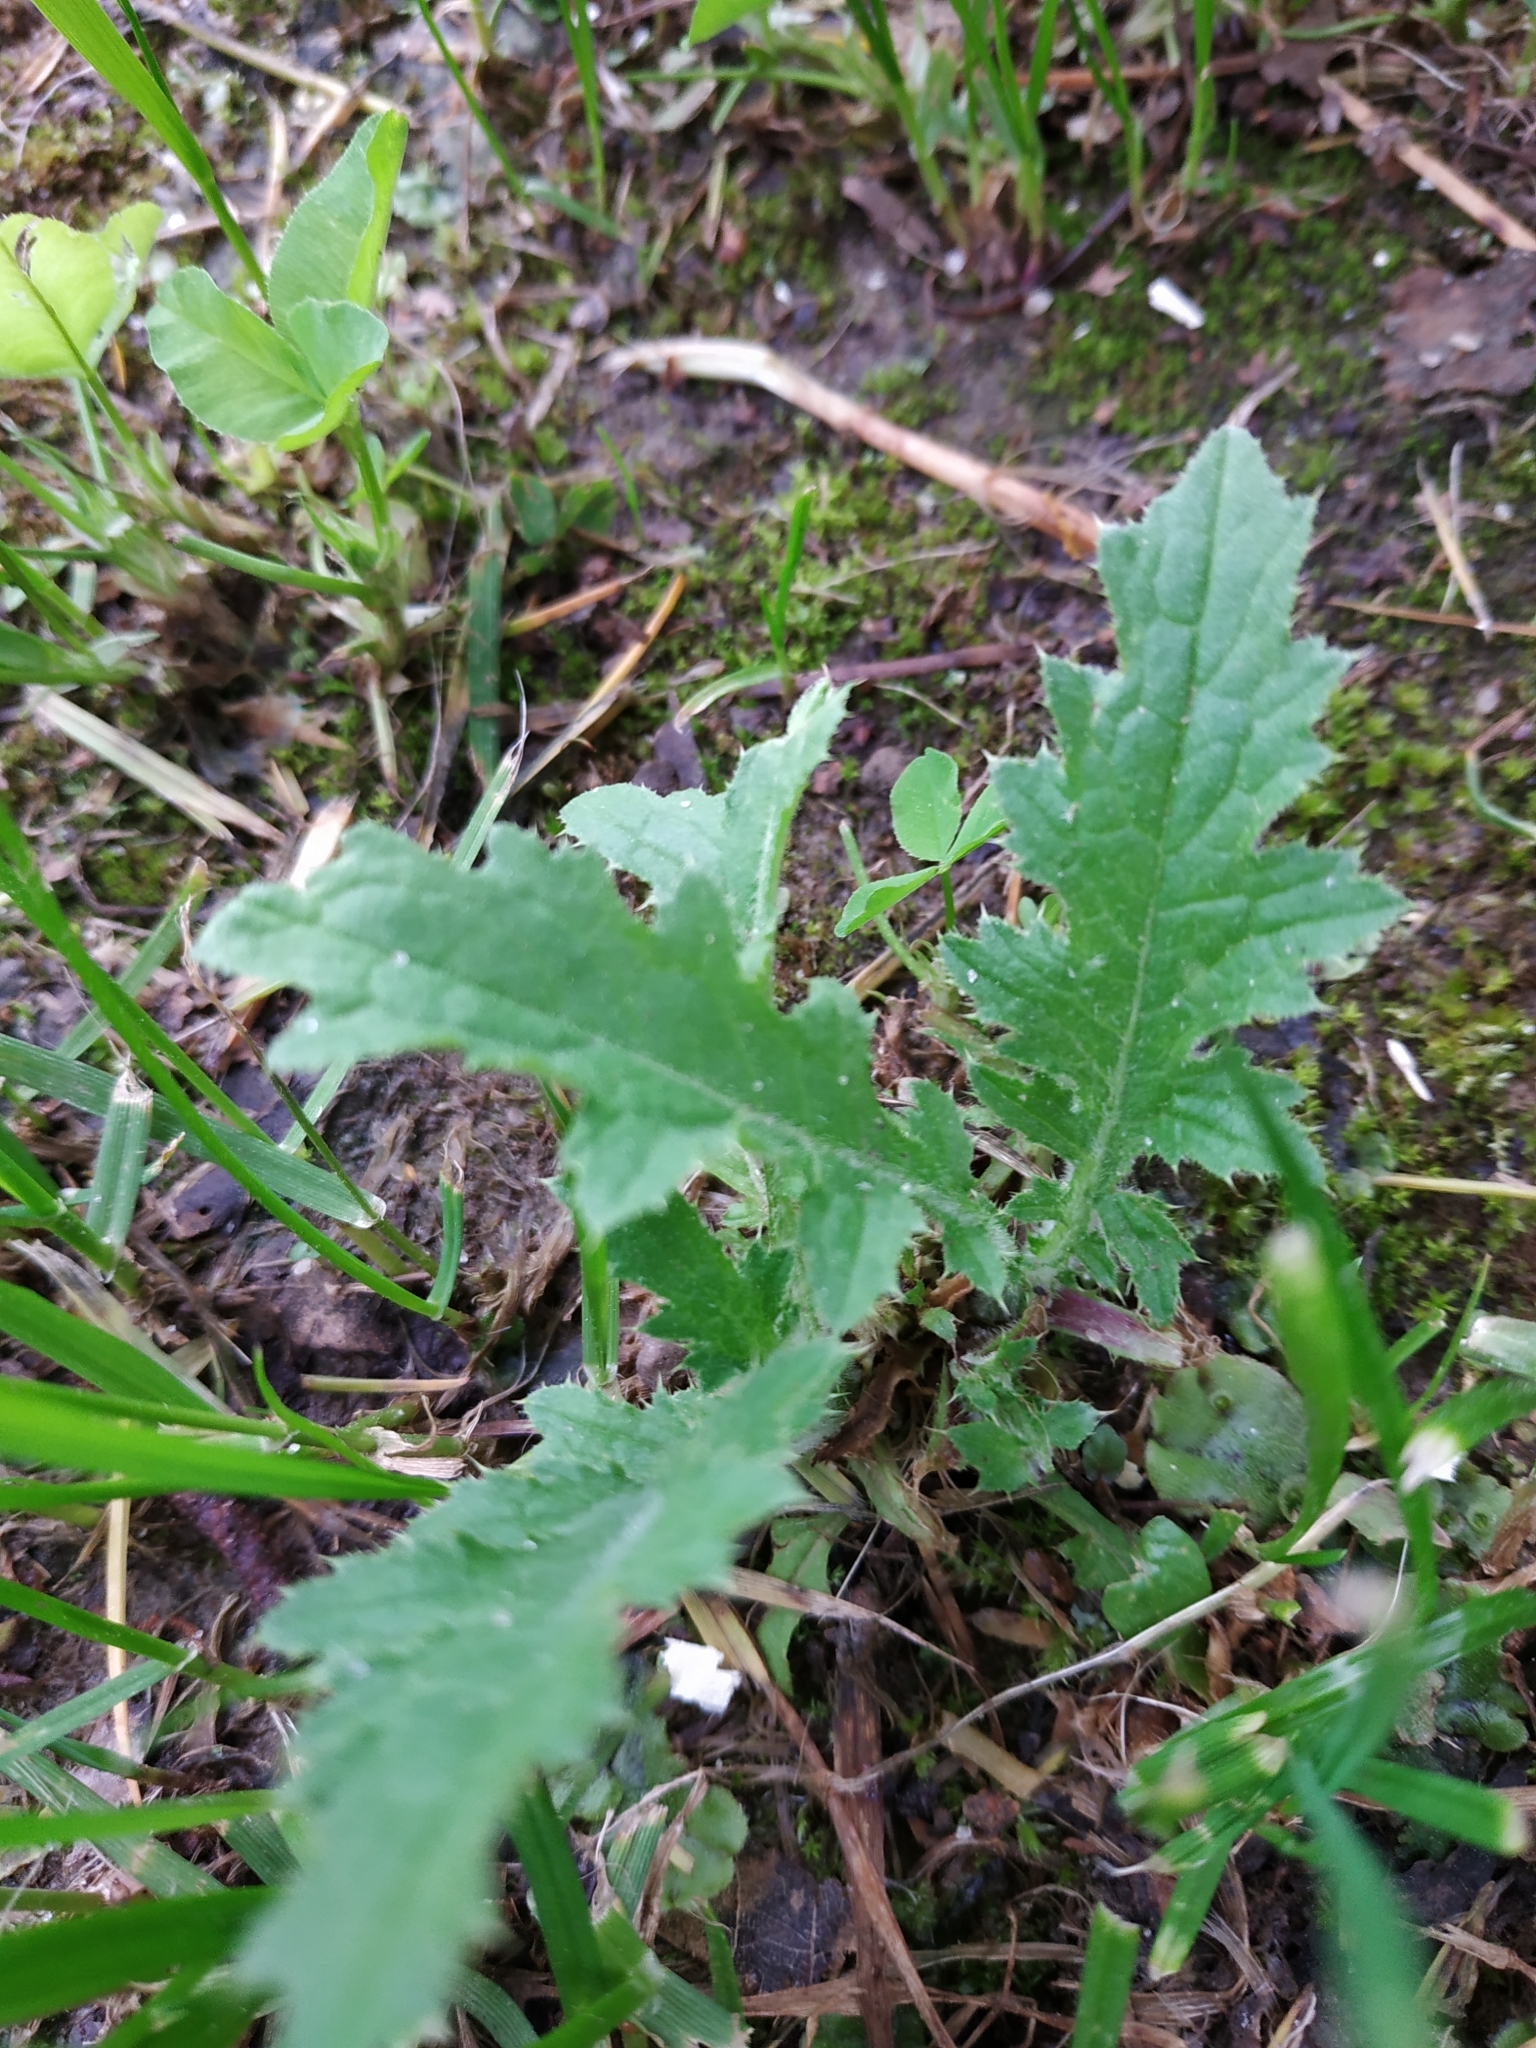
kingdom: Plantae
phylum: Tracheophyta
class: Magnoliopsida
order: Asterales
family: Asteraceae
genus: Carduus
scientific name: Carduus crispus
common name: Welted thistle
